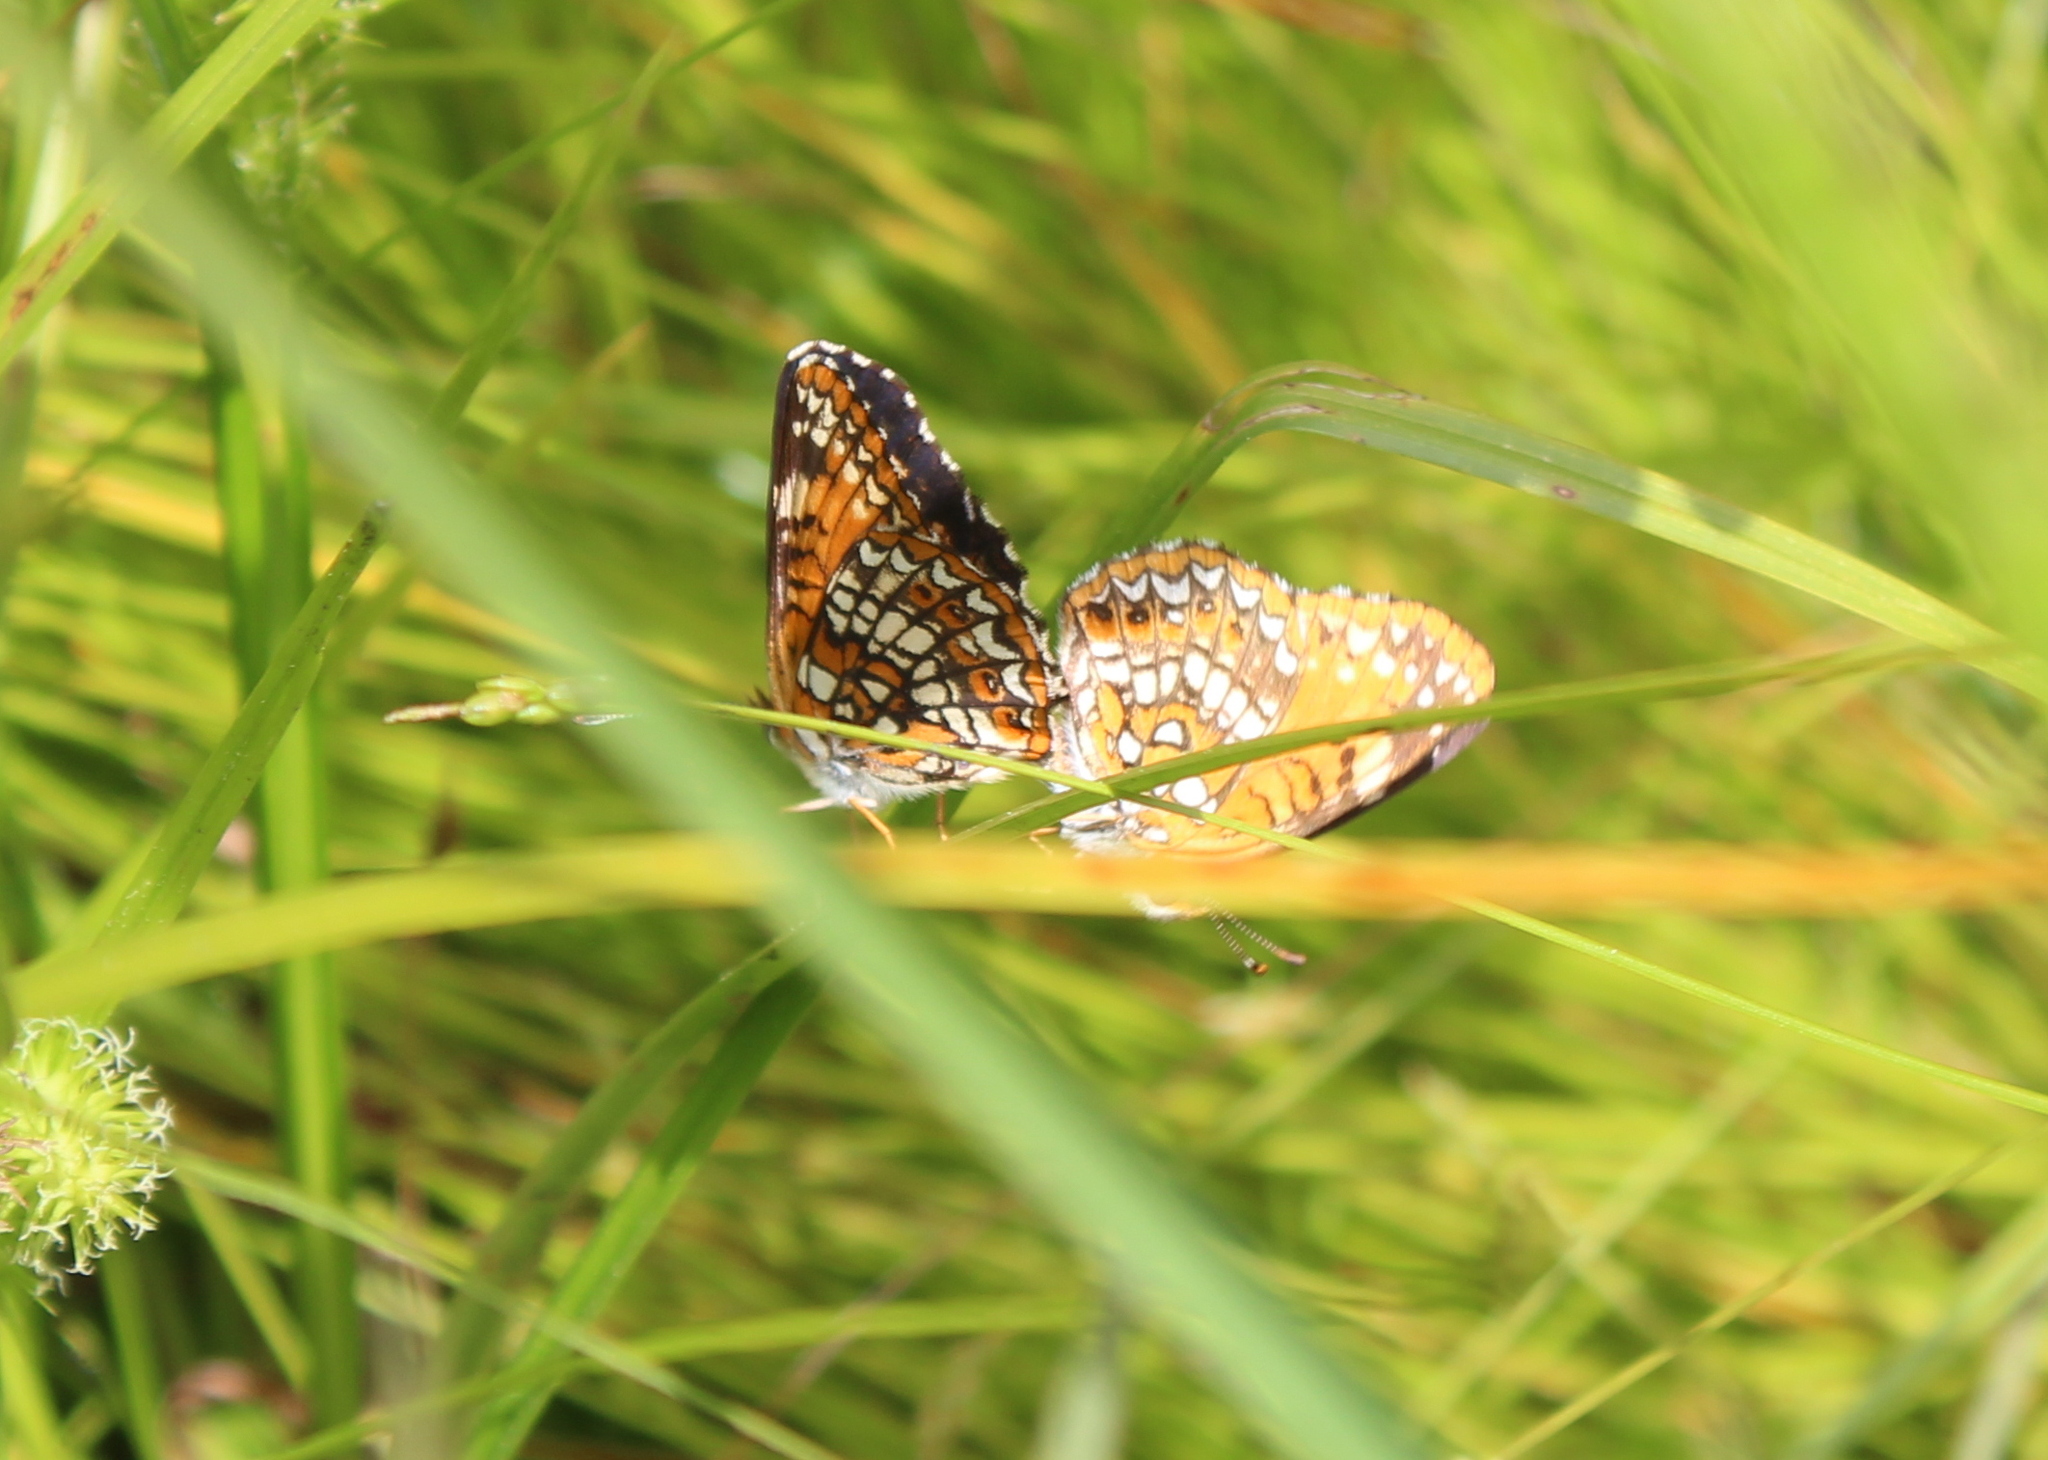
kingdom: Animalia
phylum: Arthropoda
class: Insecta
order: Lepidoptera
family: Nymphalidae
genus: Chlosyne
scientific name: Chlosyne harrisii
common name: Harris's checkerspot
